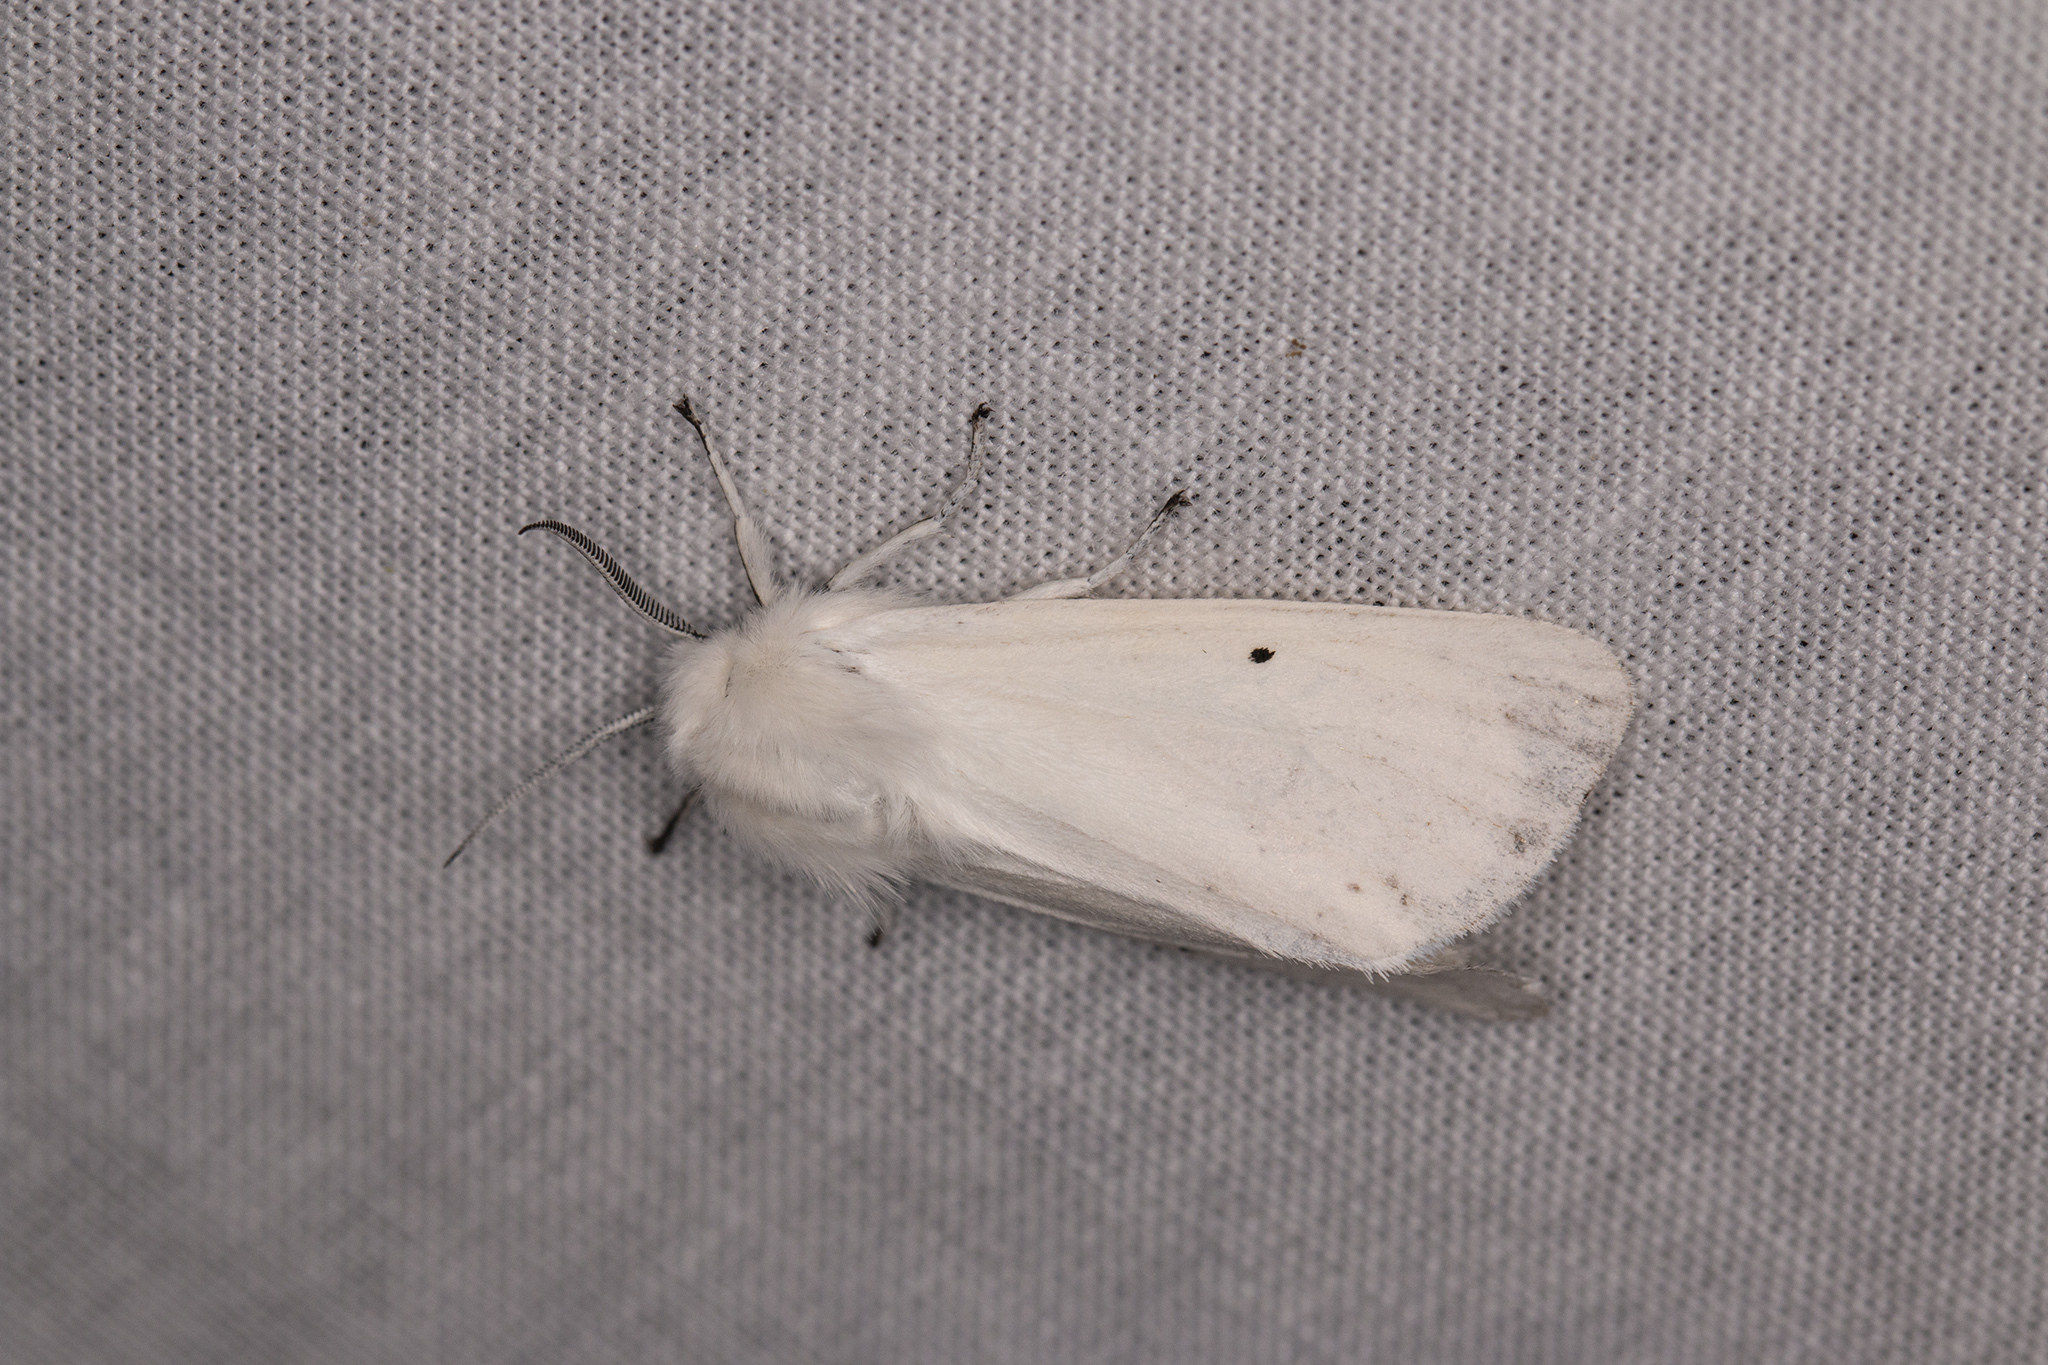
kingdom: Animalia
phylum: Arthropoda
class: Insecta
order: Lepidoptera
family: Erebidae
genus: Spilosoma
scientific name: Spilosoma urticae
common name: Water ermine
